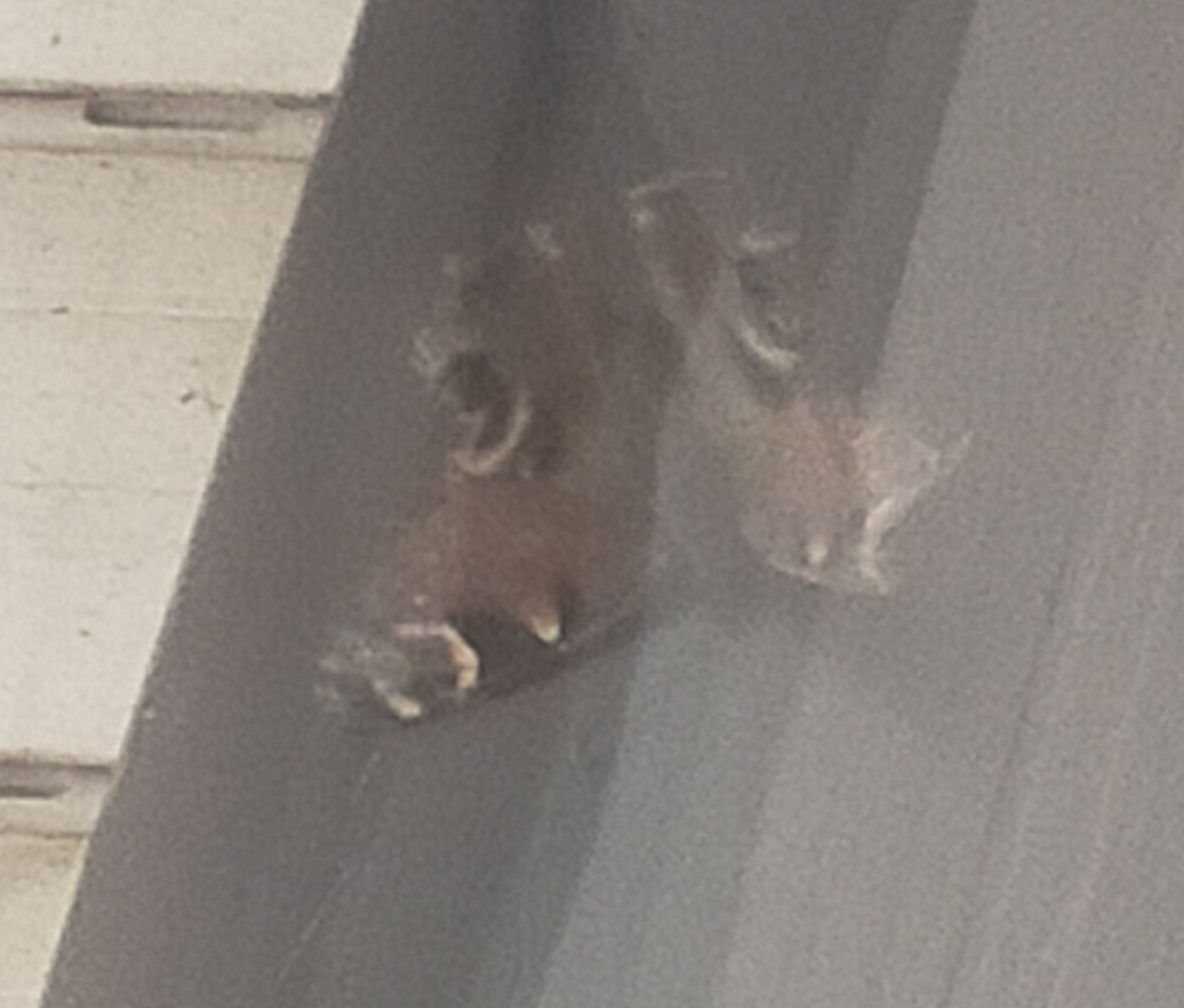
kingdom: Animalia
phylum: Arthropoda
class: Insecta
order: Lepidoptera
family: Nymphalidae
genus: Aglais
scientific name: Aglais io
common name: Peacock
